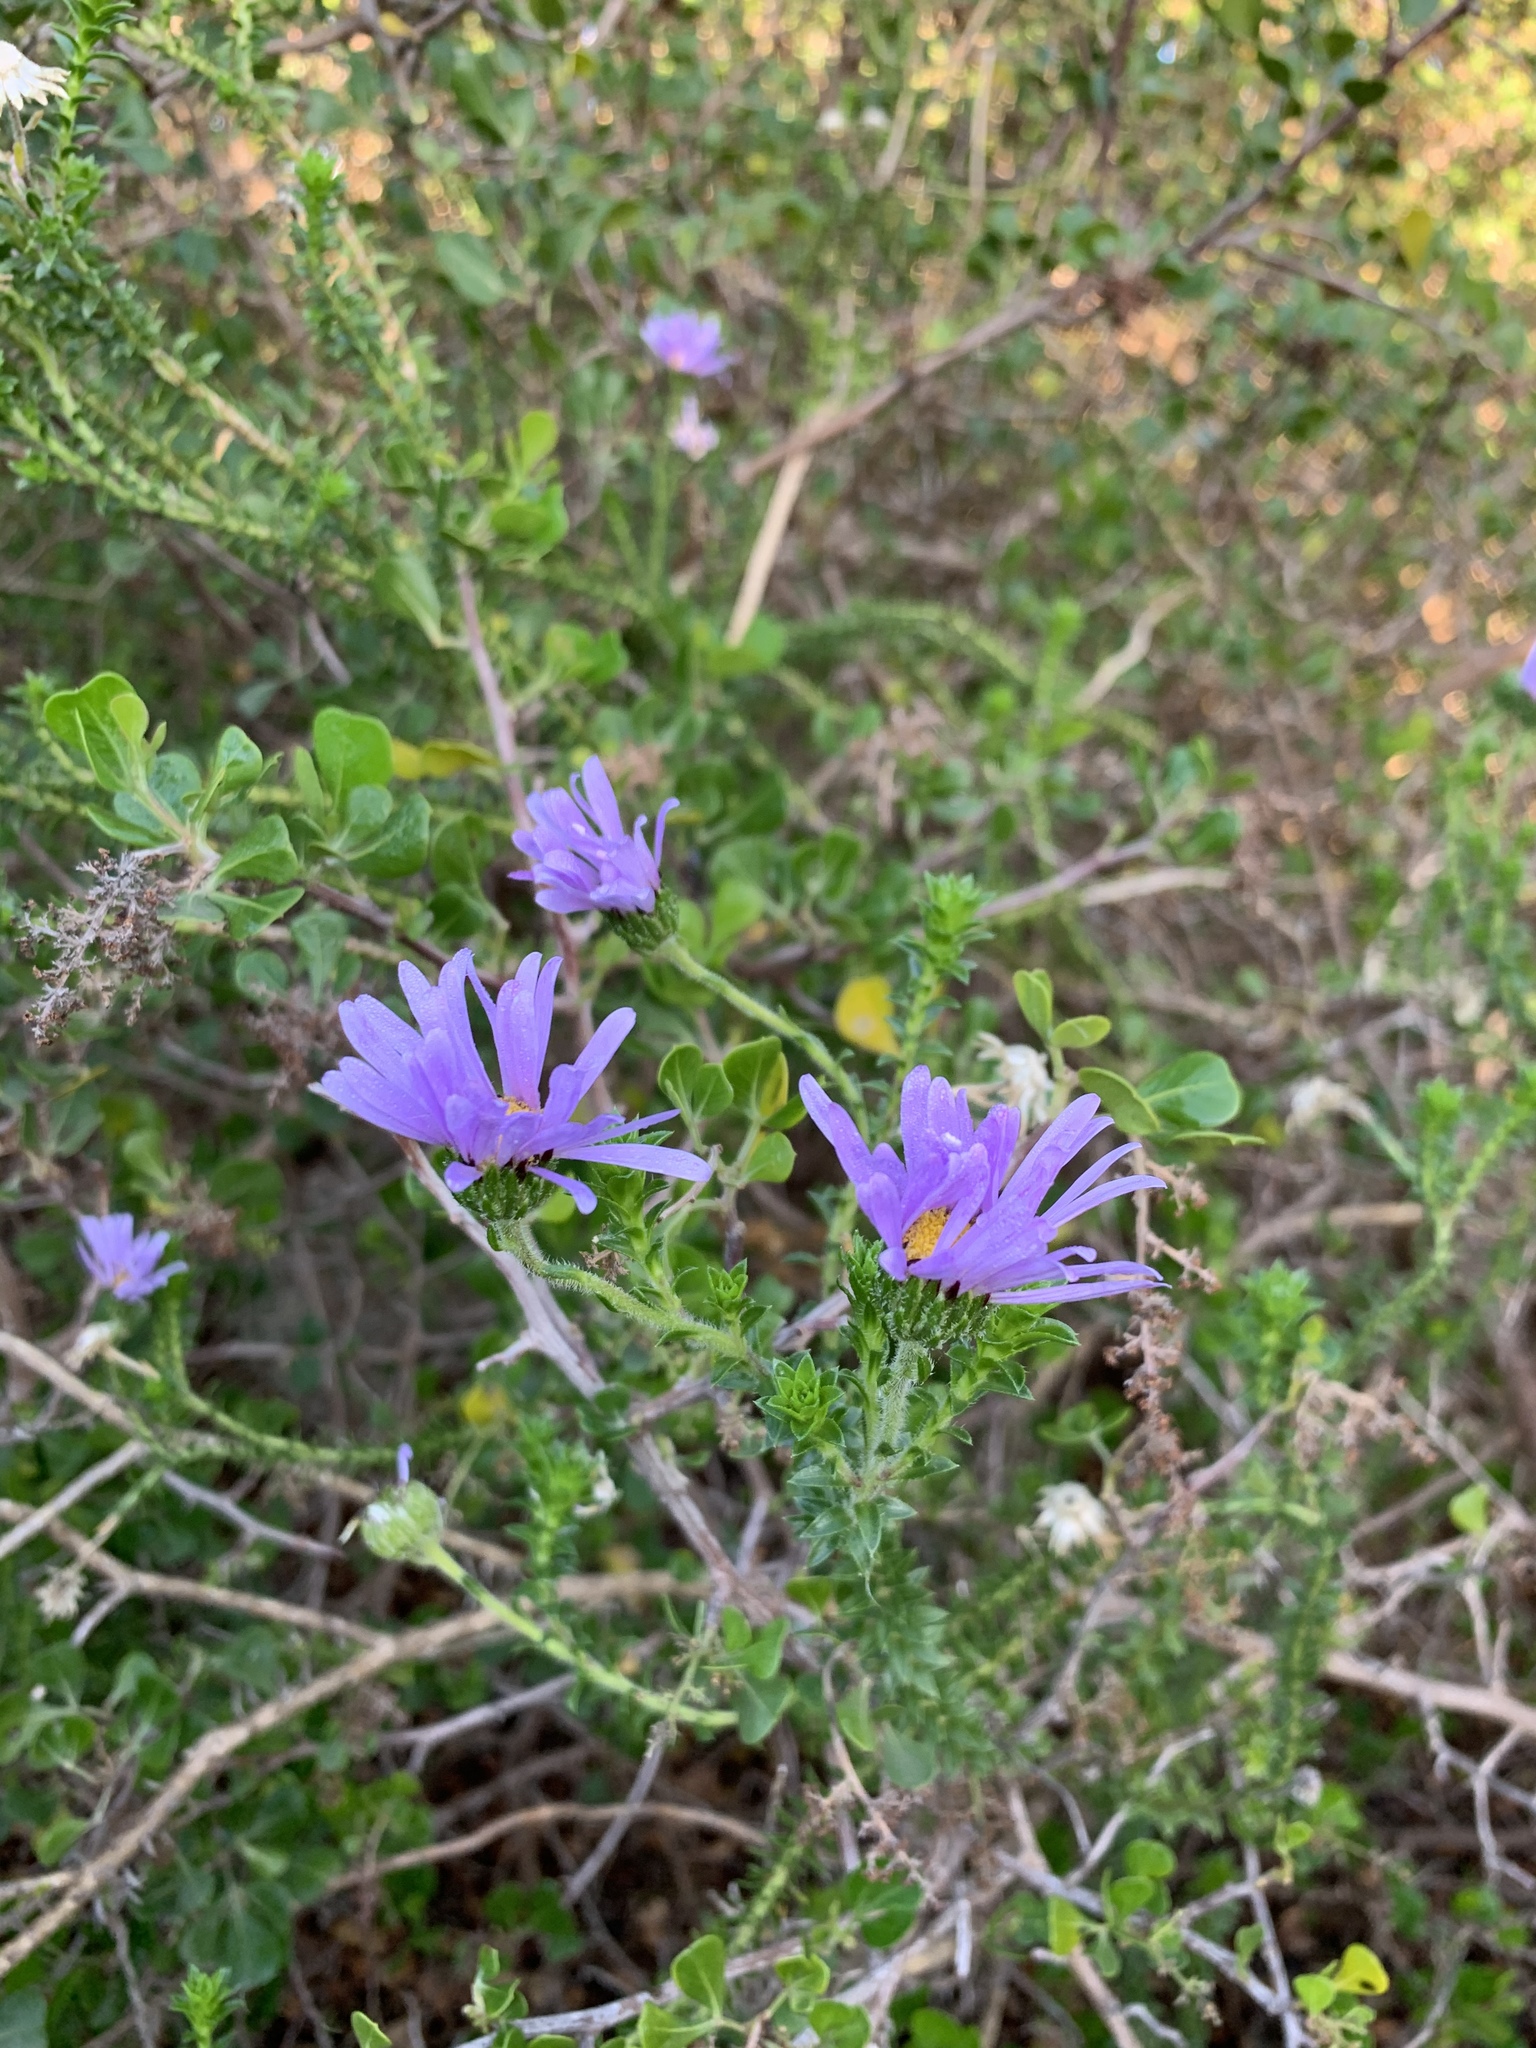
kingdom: Plantae
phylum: Tracheophyta
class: Magnoliopsida
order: Asterales
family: Asteraceae
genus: Felicia
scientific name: Felicia echinata
